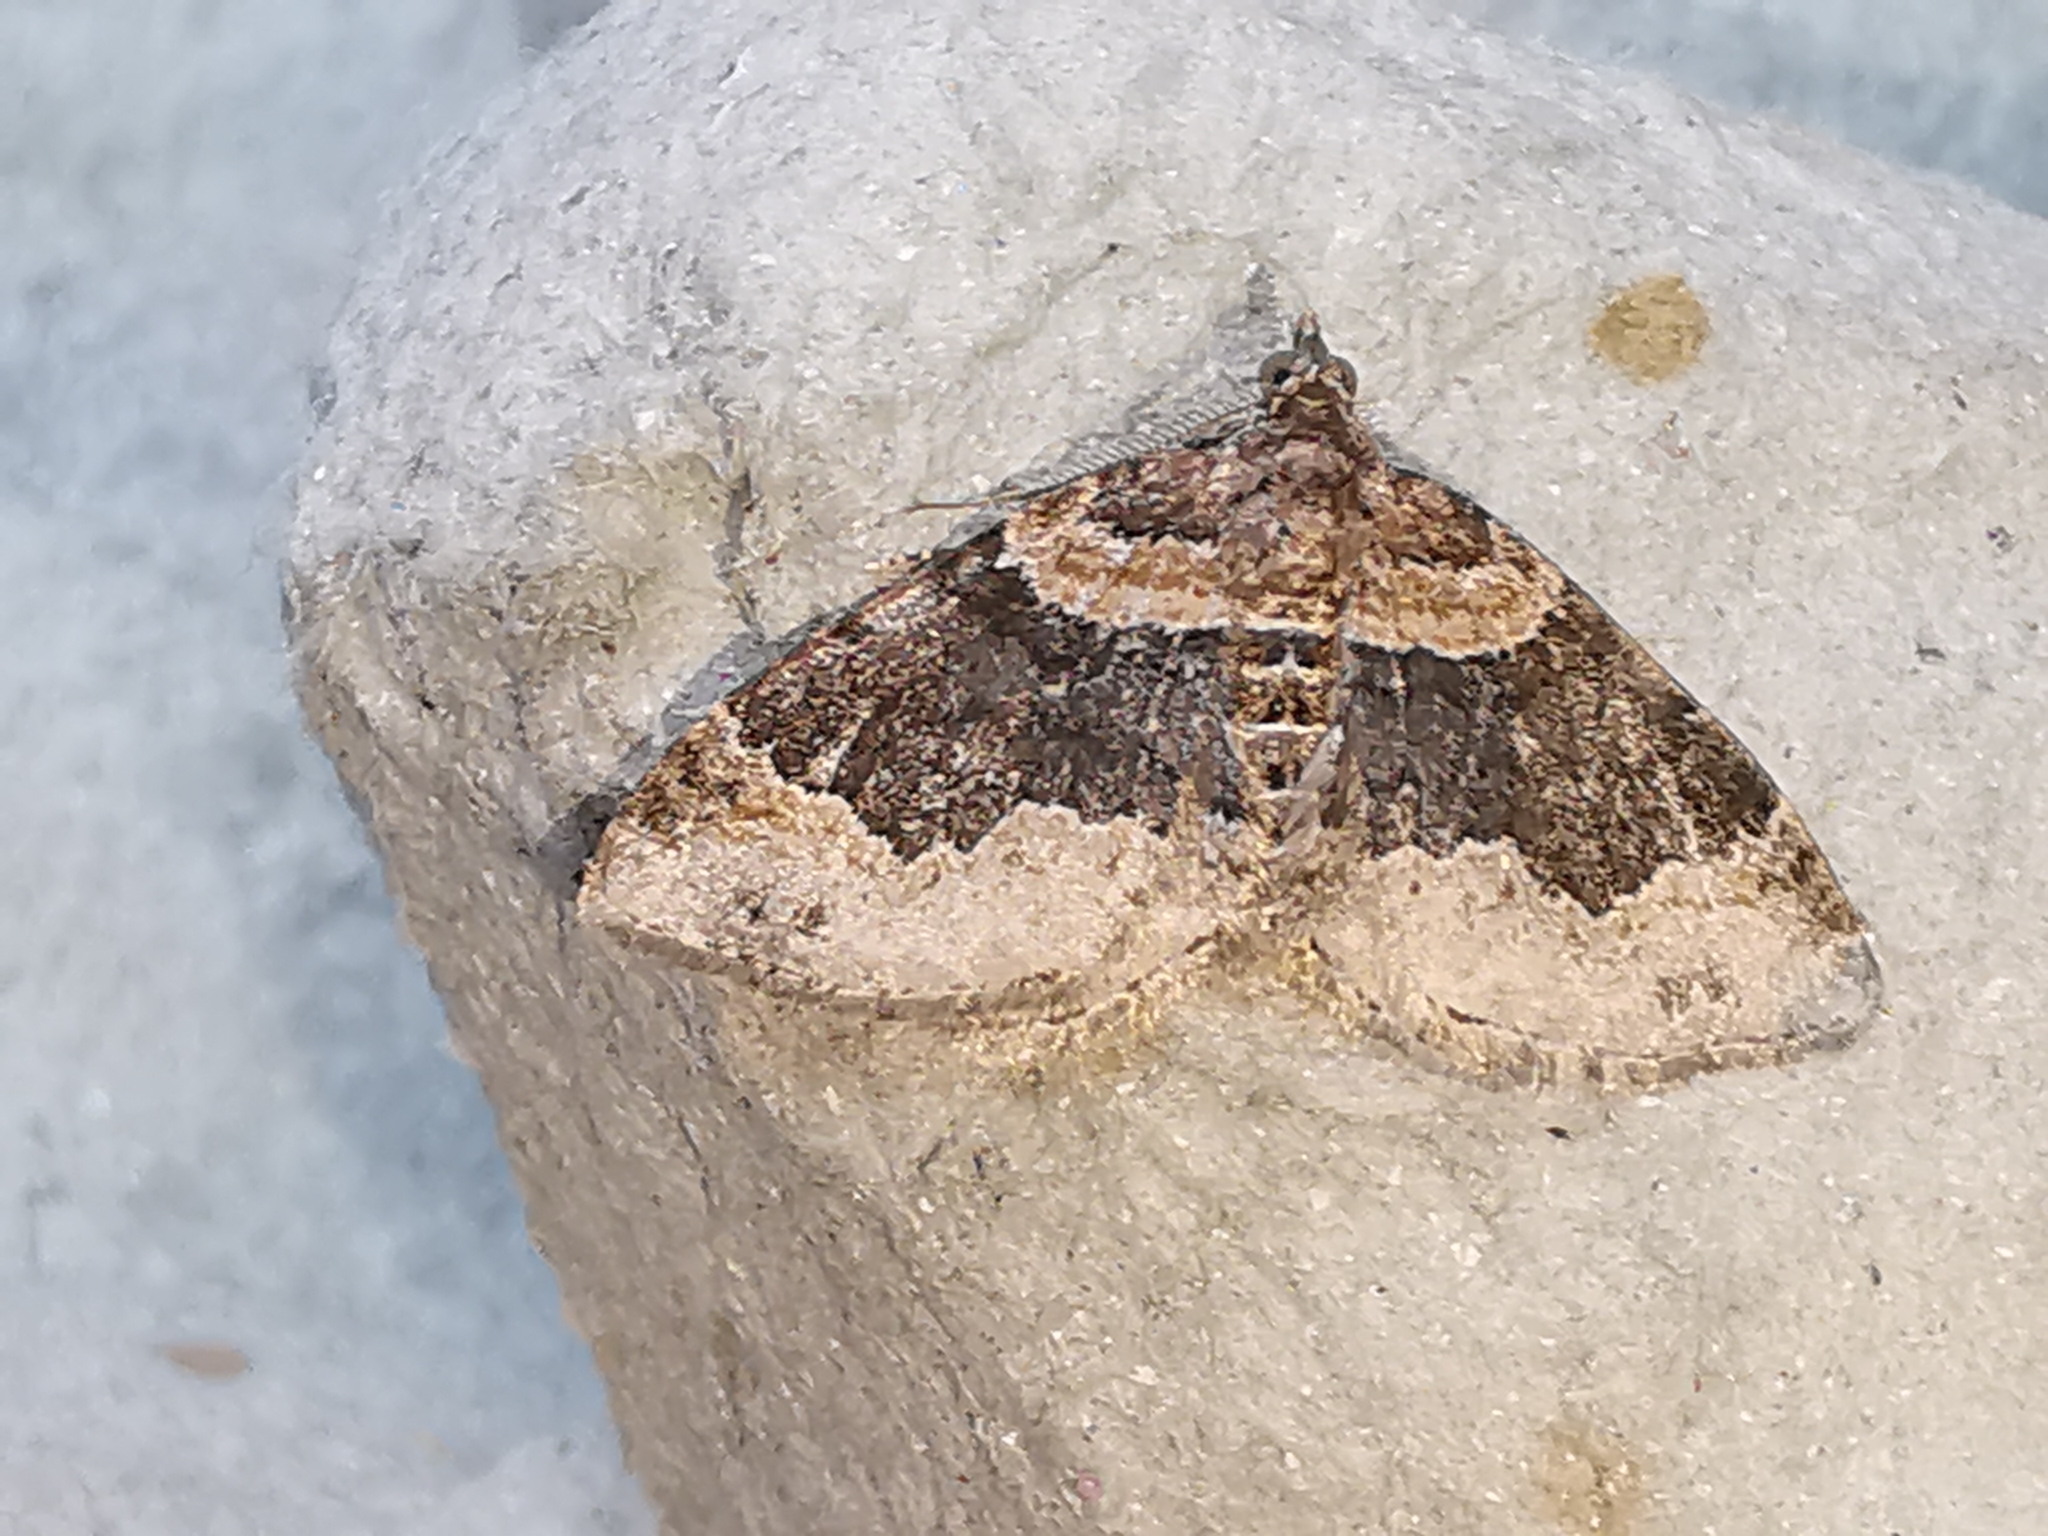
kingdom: Animalia
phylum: Arthropoda
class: Insecta
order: Lepidoptera
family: Geometridae
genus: Xanthorhoe
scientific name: Xanthorhoe ferrugata
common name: Dark-barred twin-spot carpet
